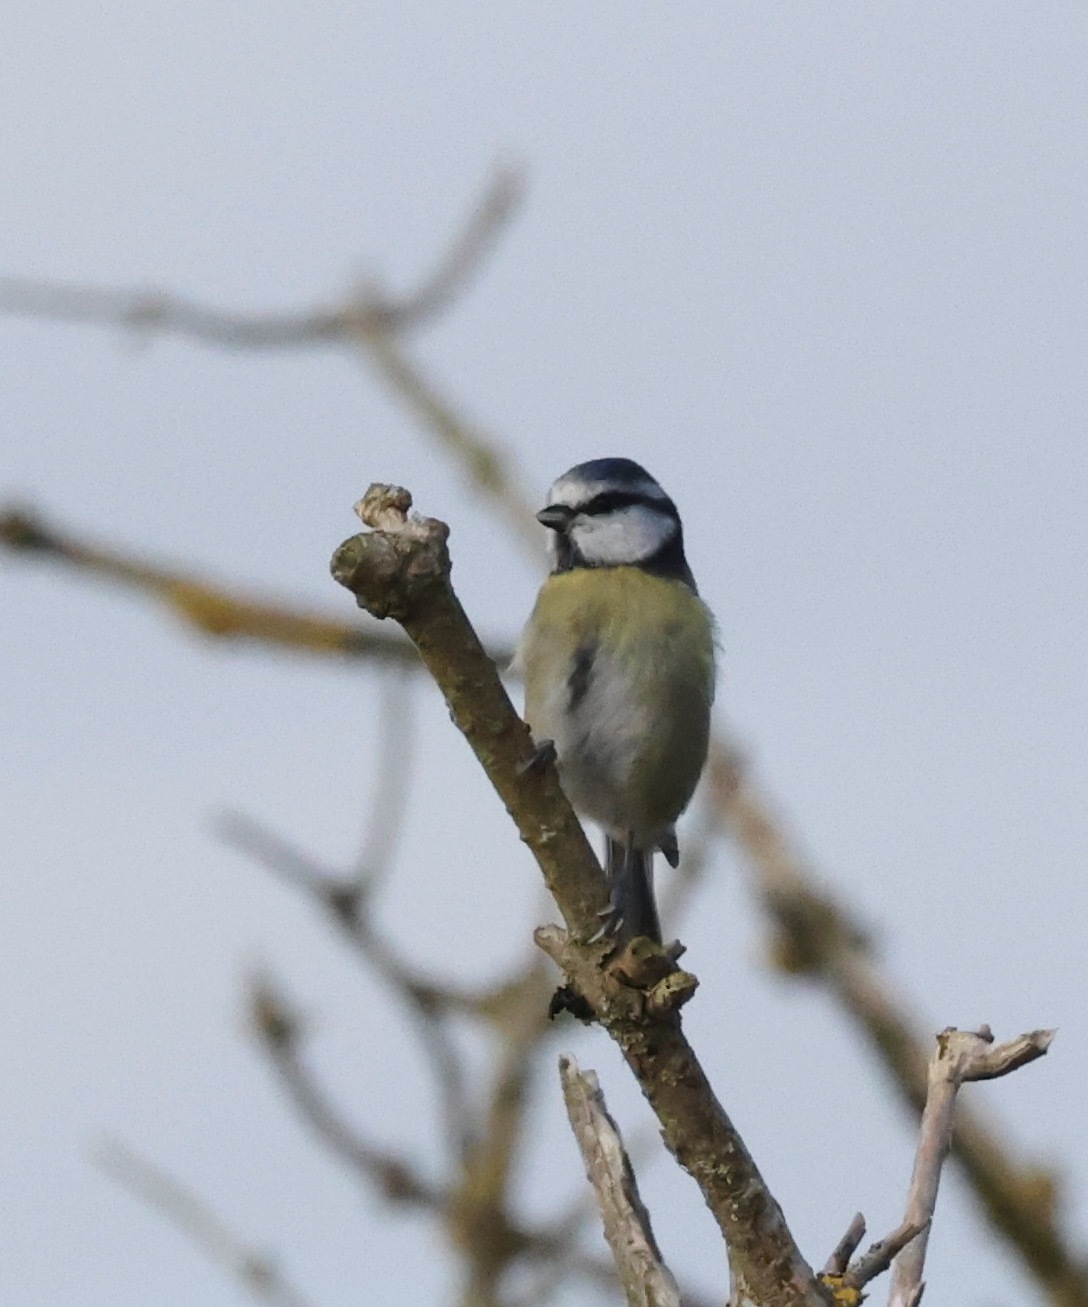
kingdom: Animalia
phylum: Chordata
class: Aves
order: Passeriformes
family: Paridae
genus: Cyanistes
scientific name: Cyanistes caeruleus
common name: Eurasian blue tit
